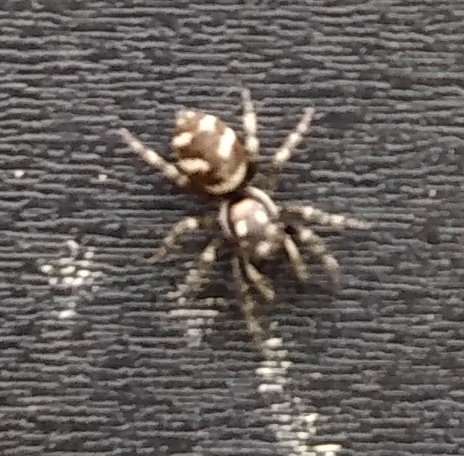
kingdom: Animalia
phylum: Arthropoda
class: Arachnida
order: Araneae
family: Salticidae
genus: Salticus
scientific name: Salticus scenicus
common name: Zebra jumper
